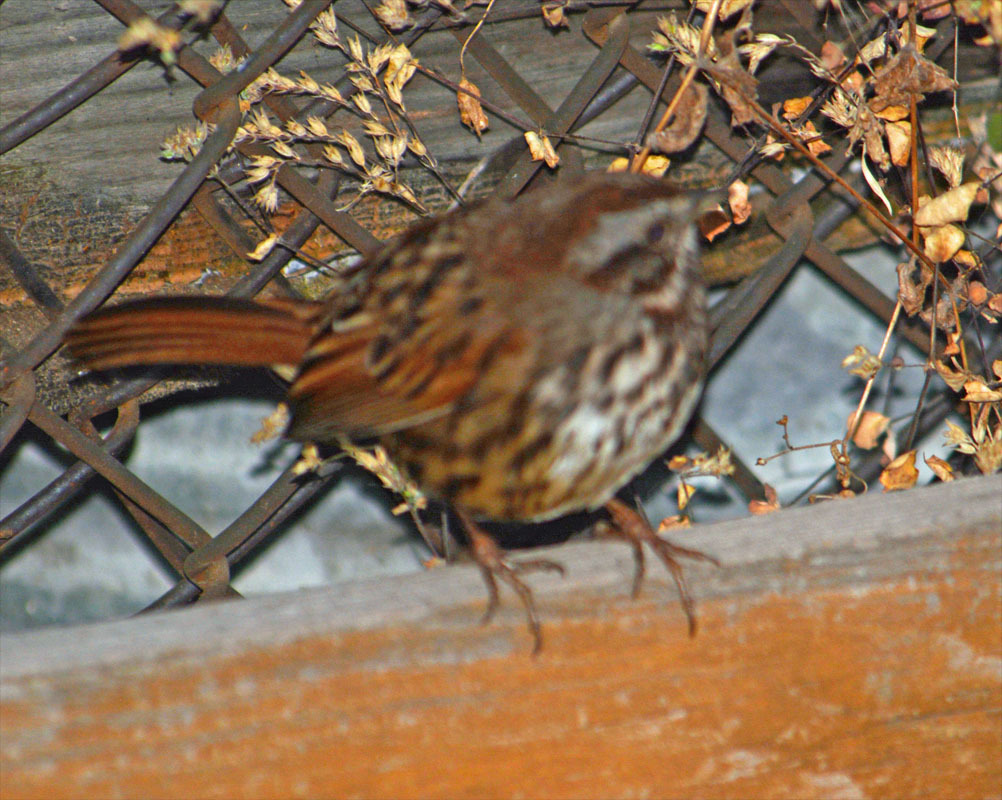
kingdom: Animalia
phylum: Chordata
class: Aves
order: Passeriformes
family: Passerellidae
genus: Melospiza
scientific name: Melospiza melodia
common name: Song sparrow
